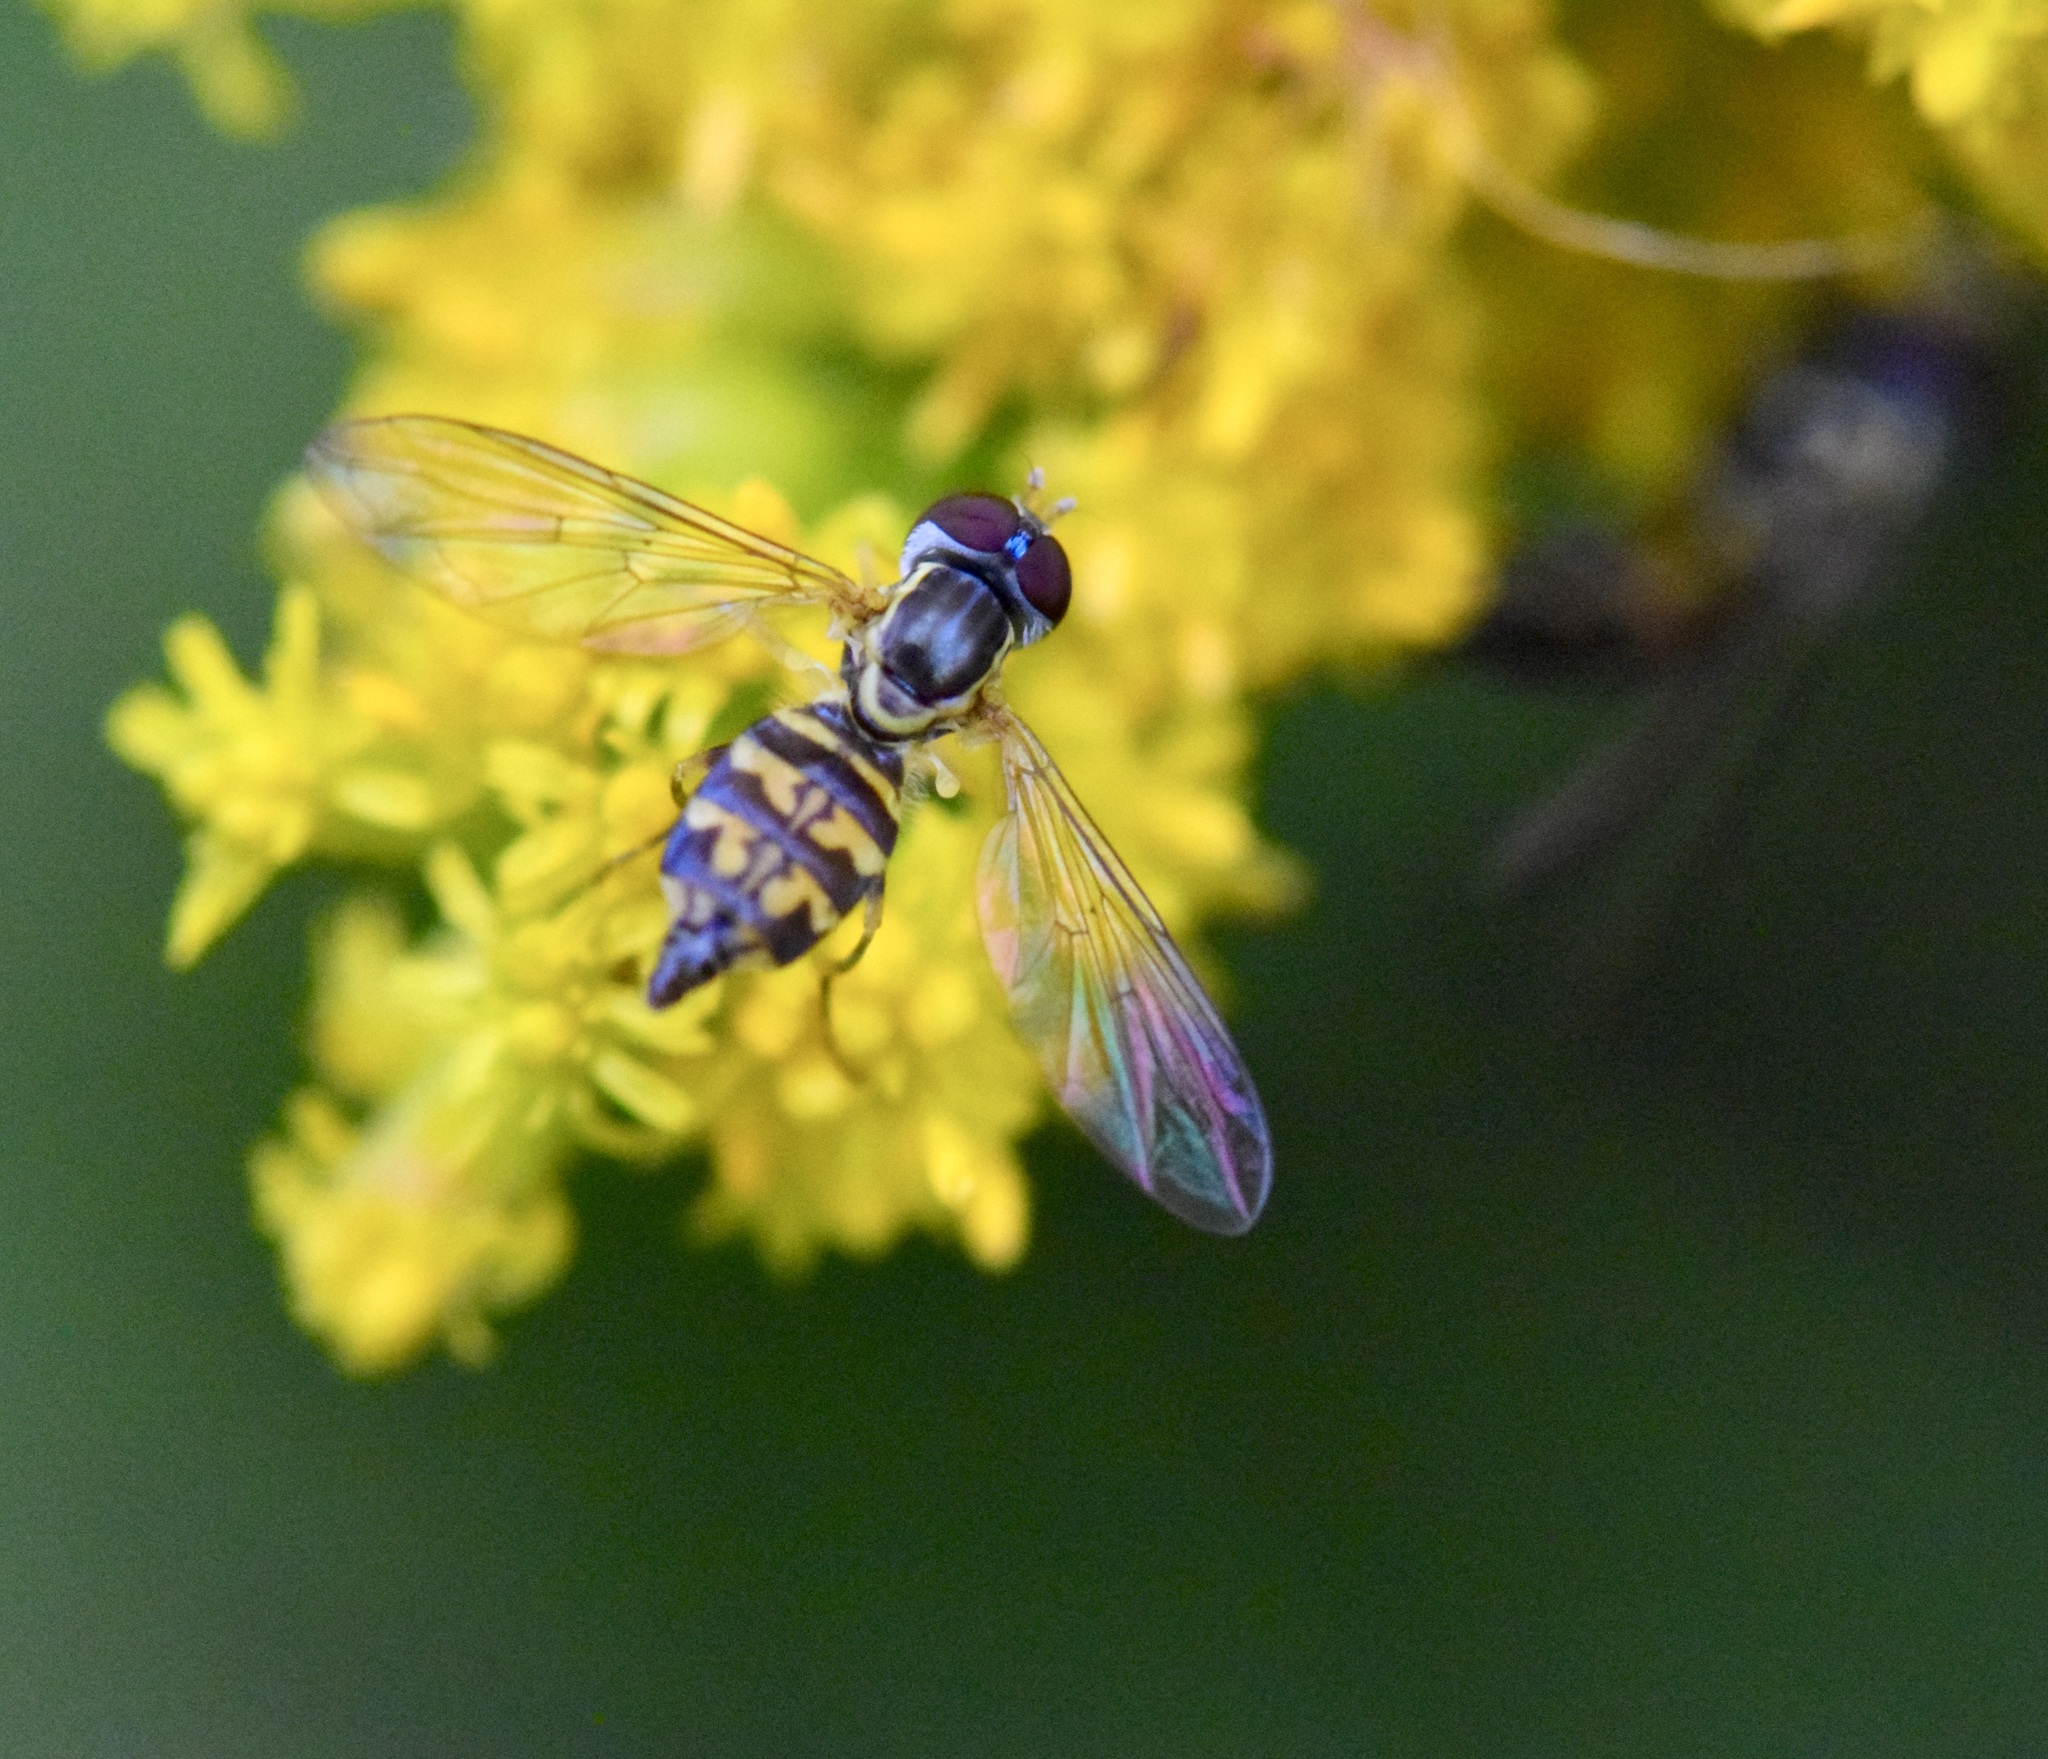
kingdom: Animalia
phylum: Arthropoda
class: Insecta
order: Diptera
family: Syrphidae
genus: Toxomerus
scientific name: Toxomerus geminatus
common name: Eastern calligrapher
